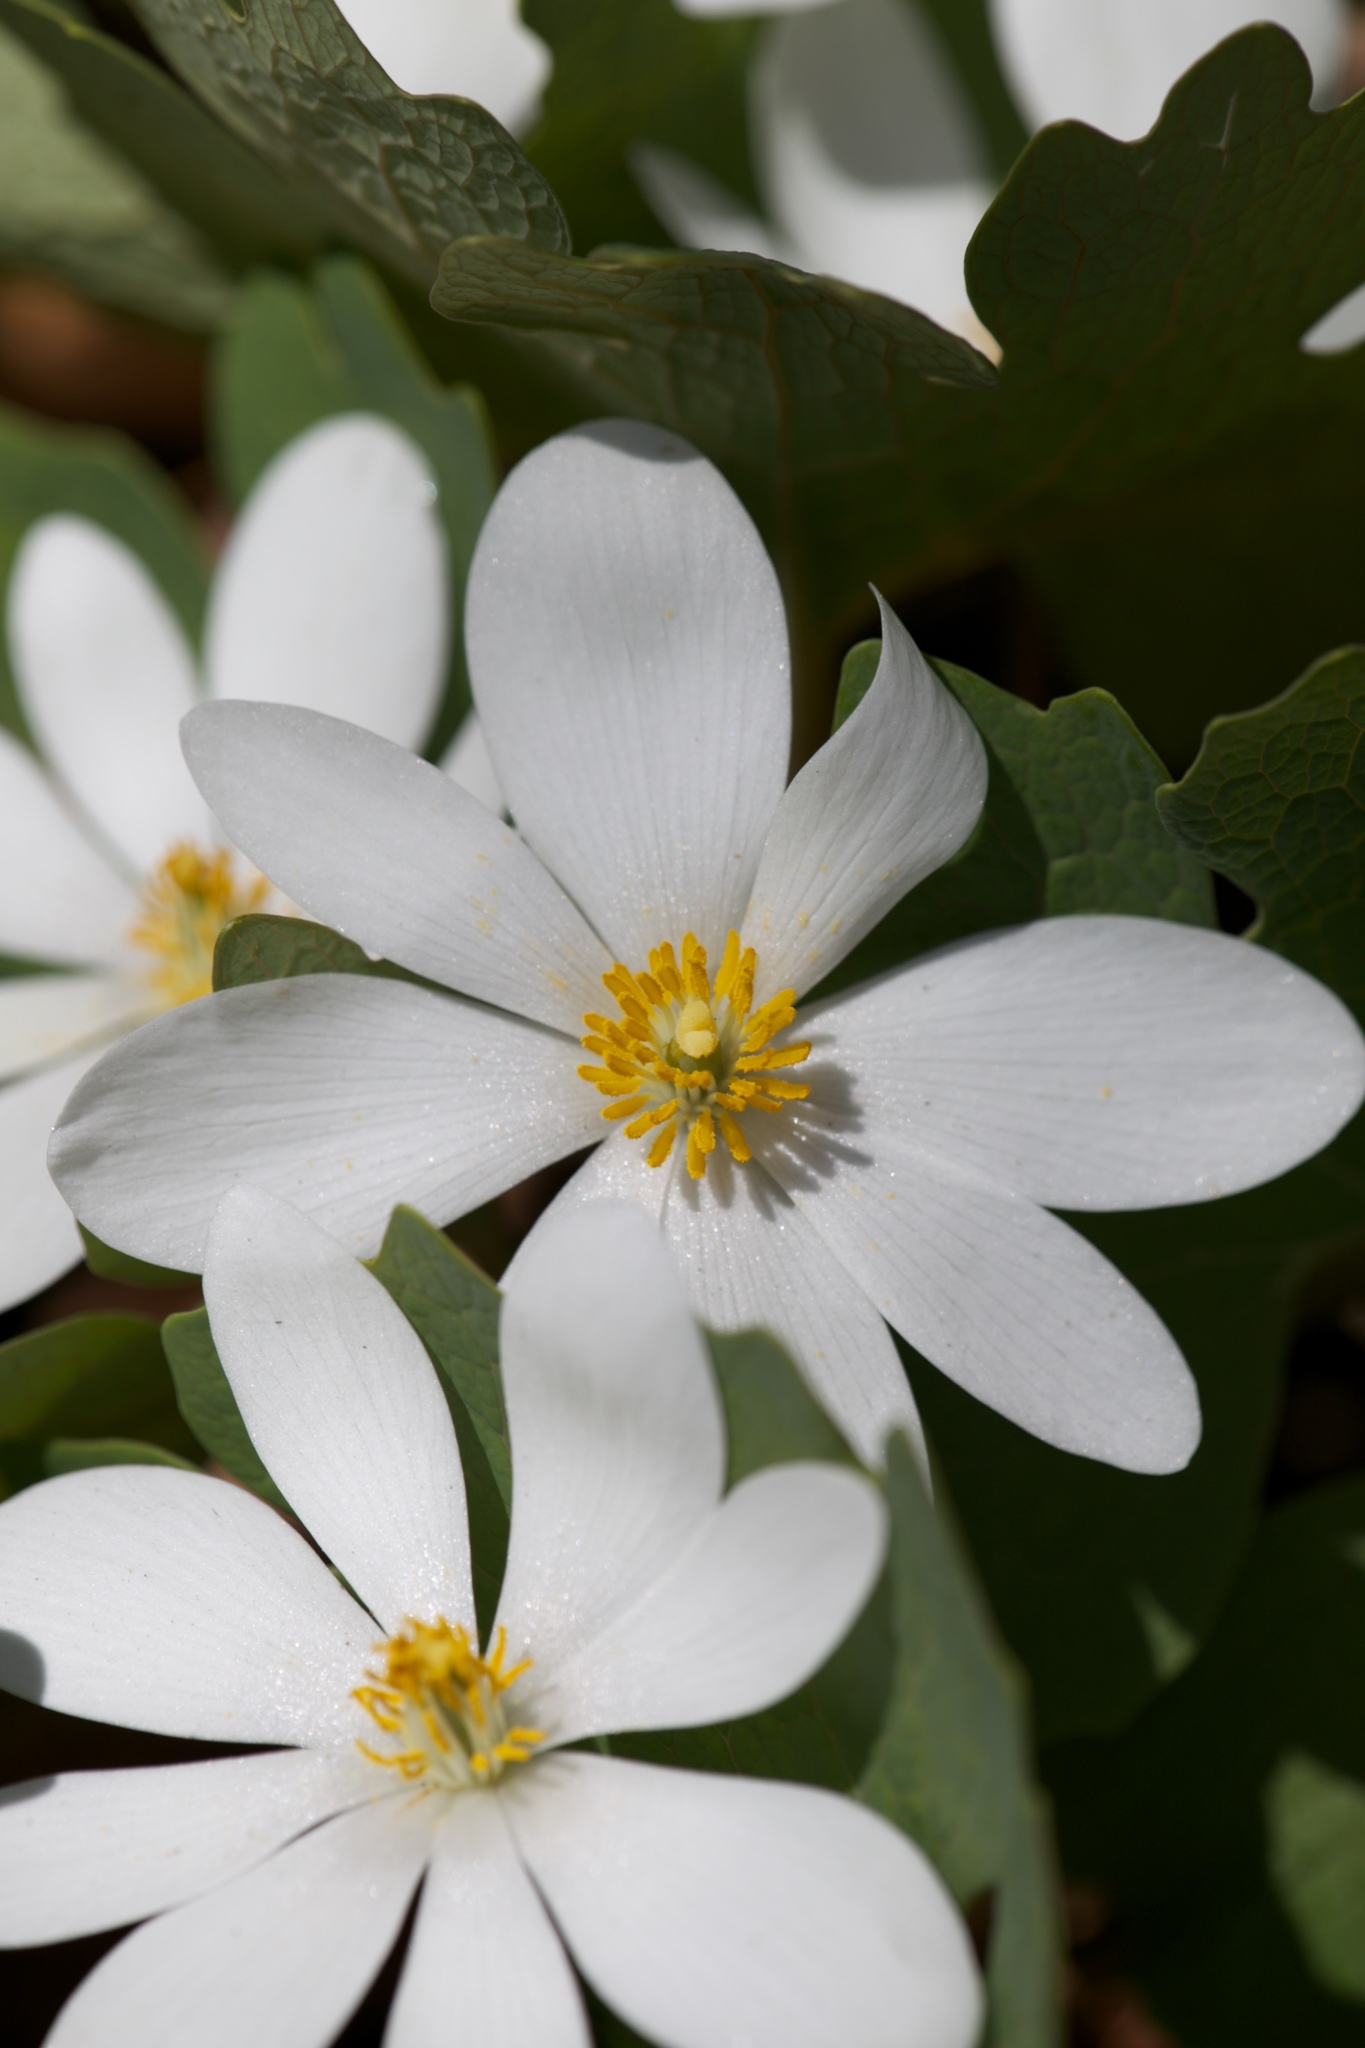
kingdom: Plantae
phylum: Tracheophyta
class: Magnoliopsida
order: Ranunculales
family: Papaveraceae
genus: Sanguinaria
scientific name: Sanguinaria canadensis
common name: Bloodroot
